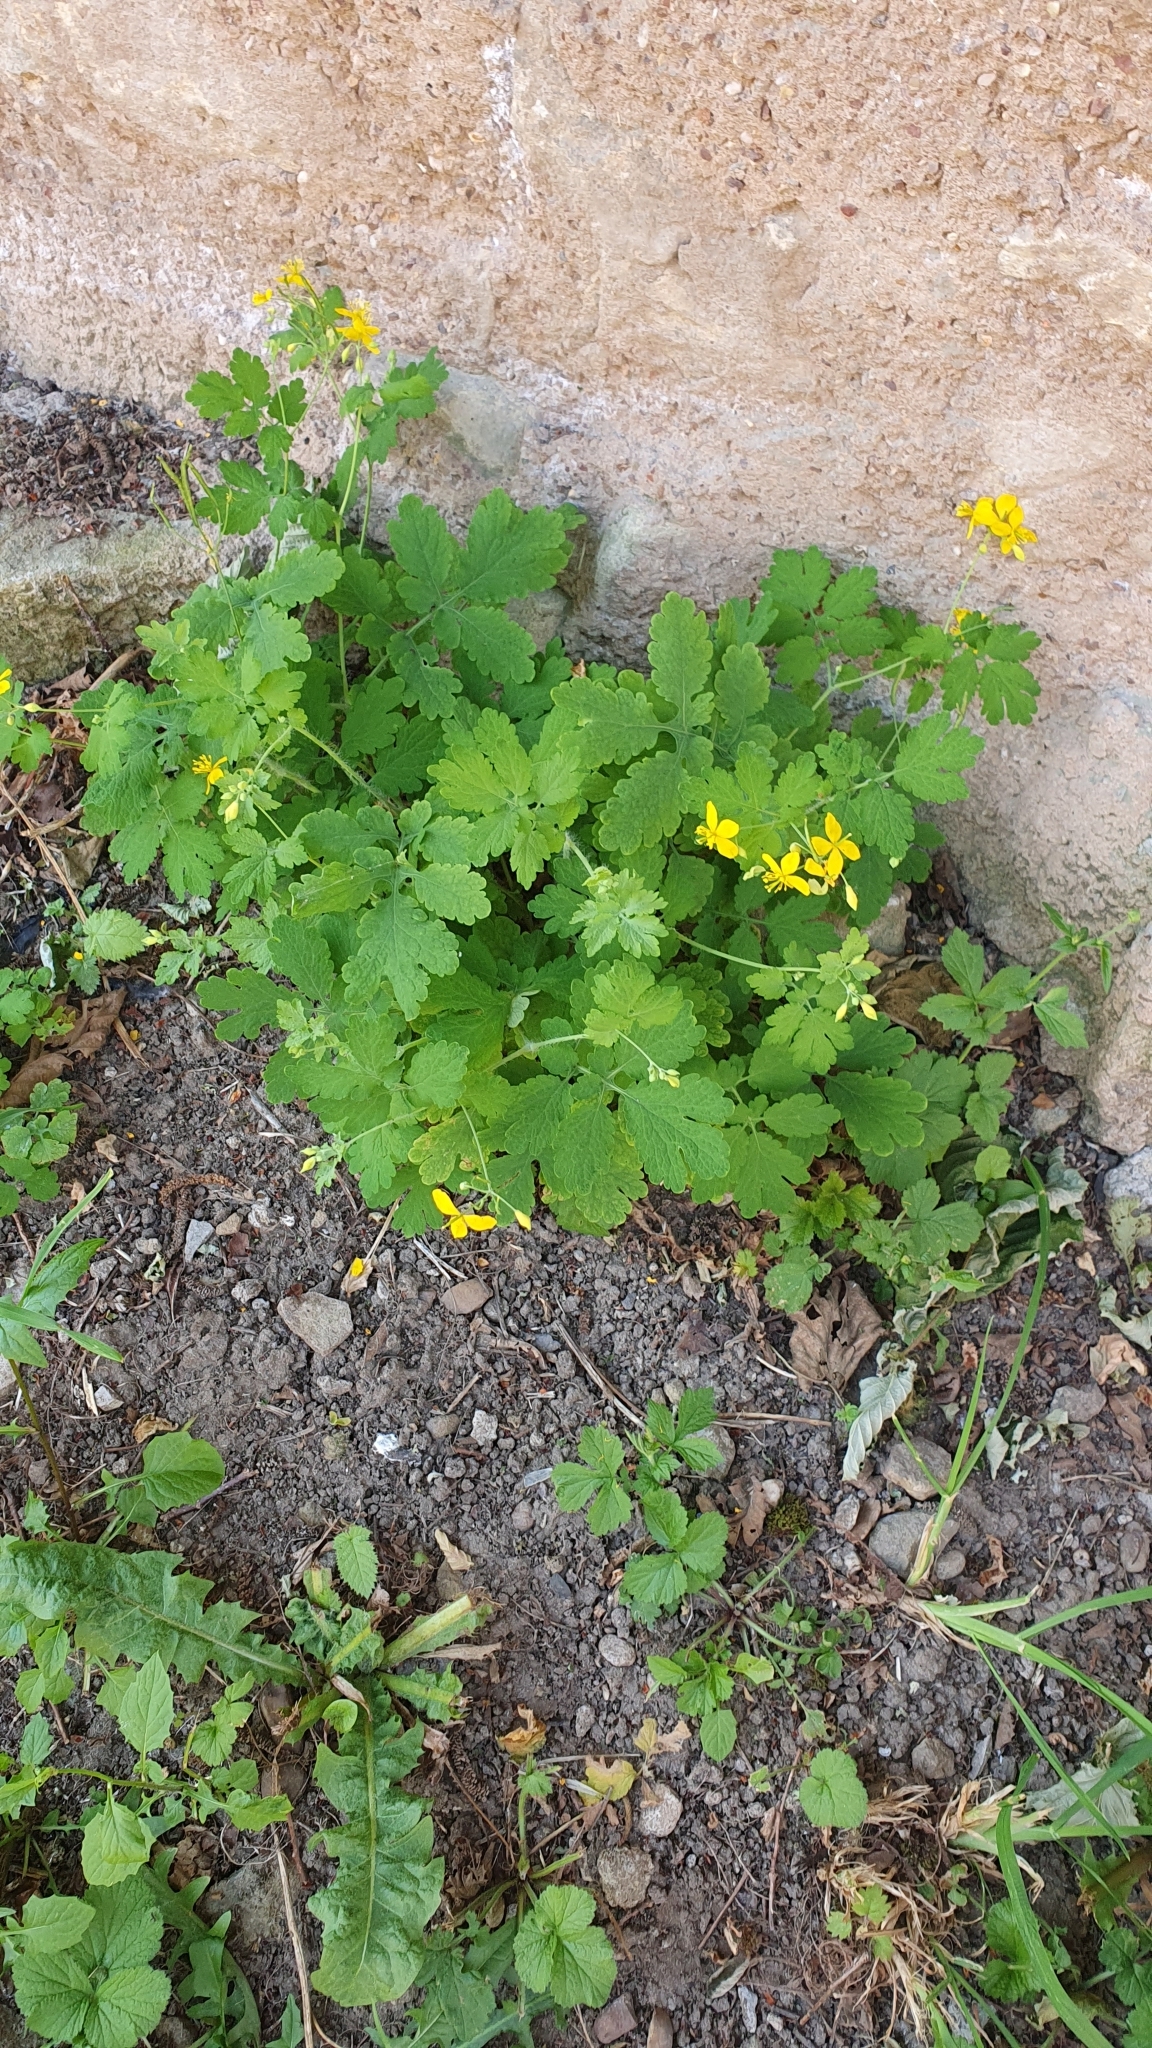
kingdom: Plantae
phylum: Tracheophyta
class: Magnoliopsida
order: Ranunculales
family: Papaveraceae
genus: Chelidonium
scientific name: Chelidonium majus
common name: Greater celandine
